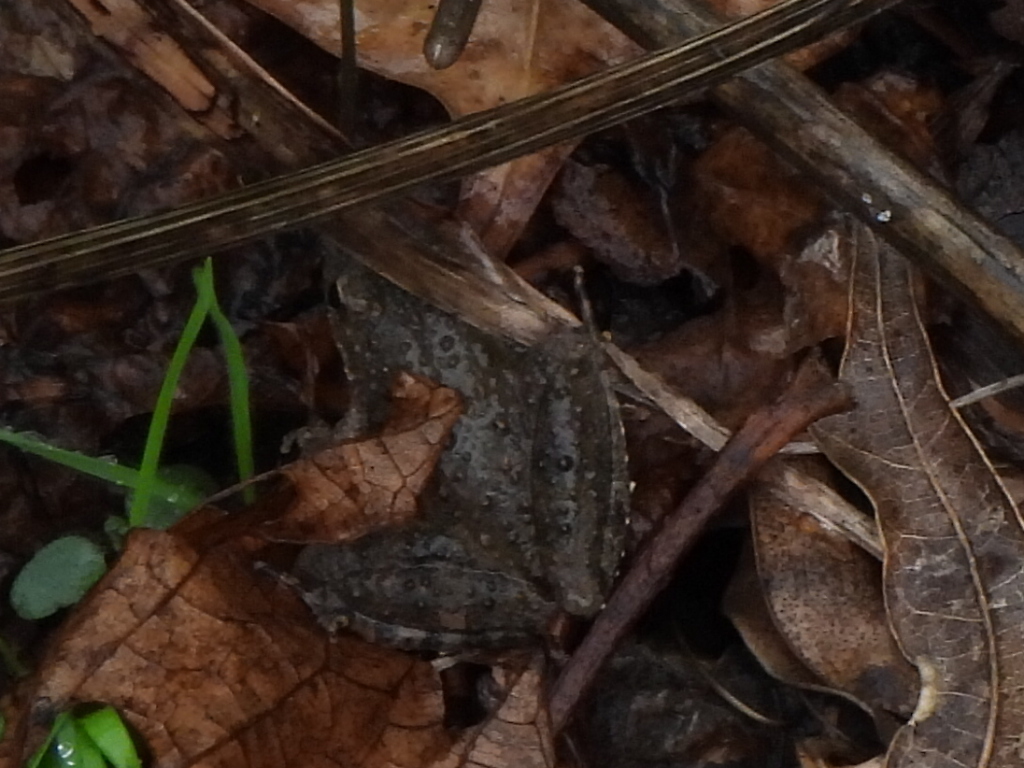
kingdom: Animalia
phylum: Chordata
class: Amphibia
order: Anura
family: Hylidae
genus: Acris
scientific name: Acris blanchardi
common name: Blanchard's cricket frog
